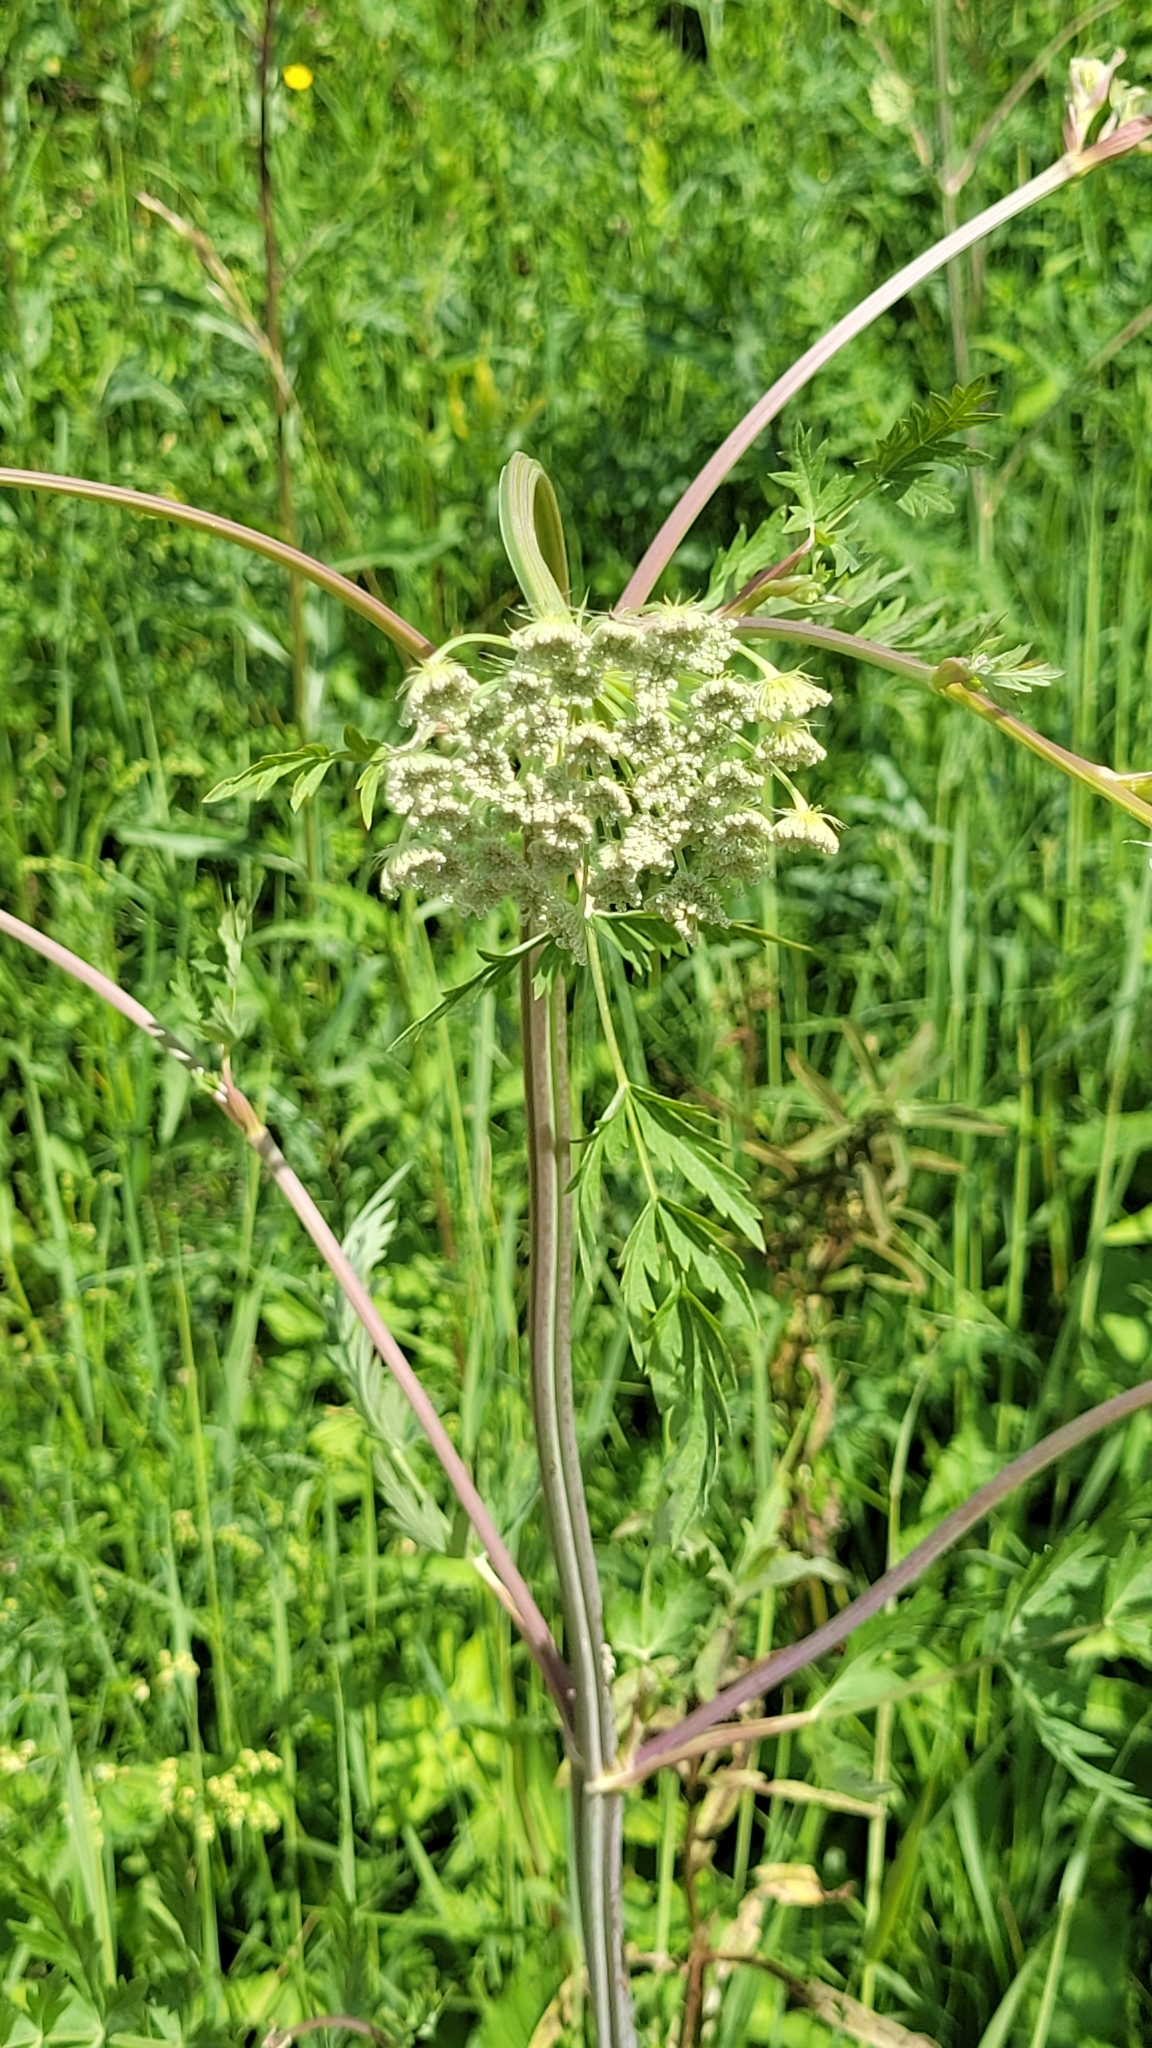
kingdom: Plantae
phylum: Tracheophyta
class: Magnoliopsida
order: Apiales
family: Apiaceae
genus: Seseli
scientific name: Seseli libanotis
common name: Mooncarrot
